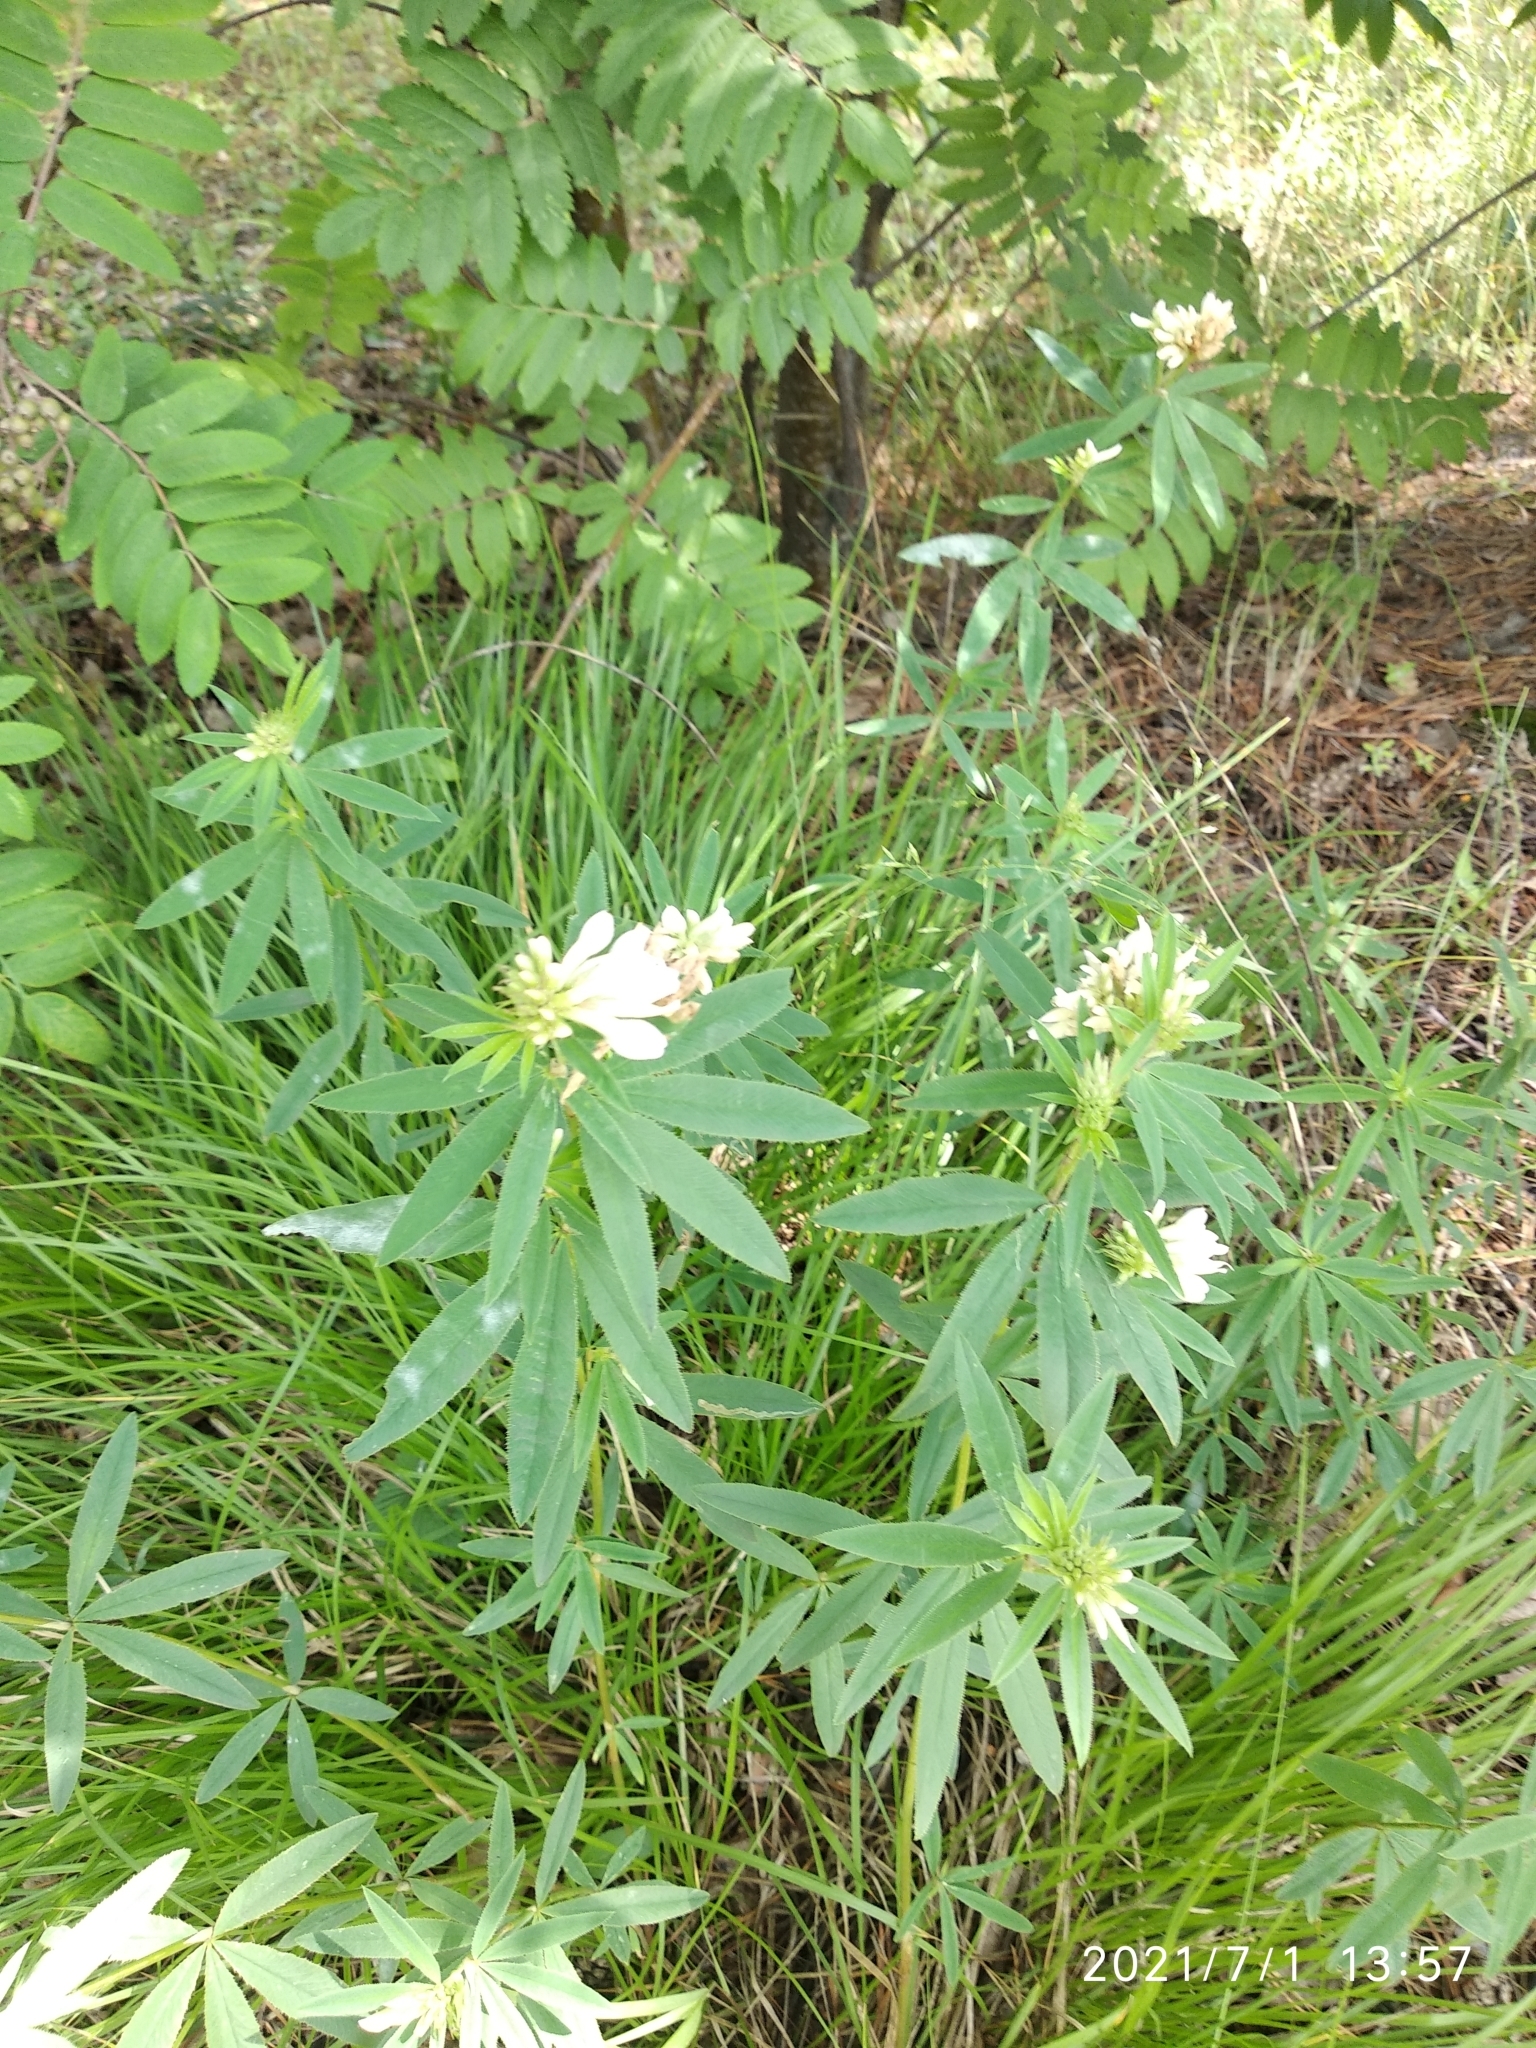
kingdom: Plantae
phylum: Tracheophyta
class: Magnoliopsida
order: Fabales
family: Fabaceae
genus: Trifolium
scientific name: Trifolium lupinaster
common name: Lupine clover
